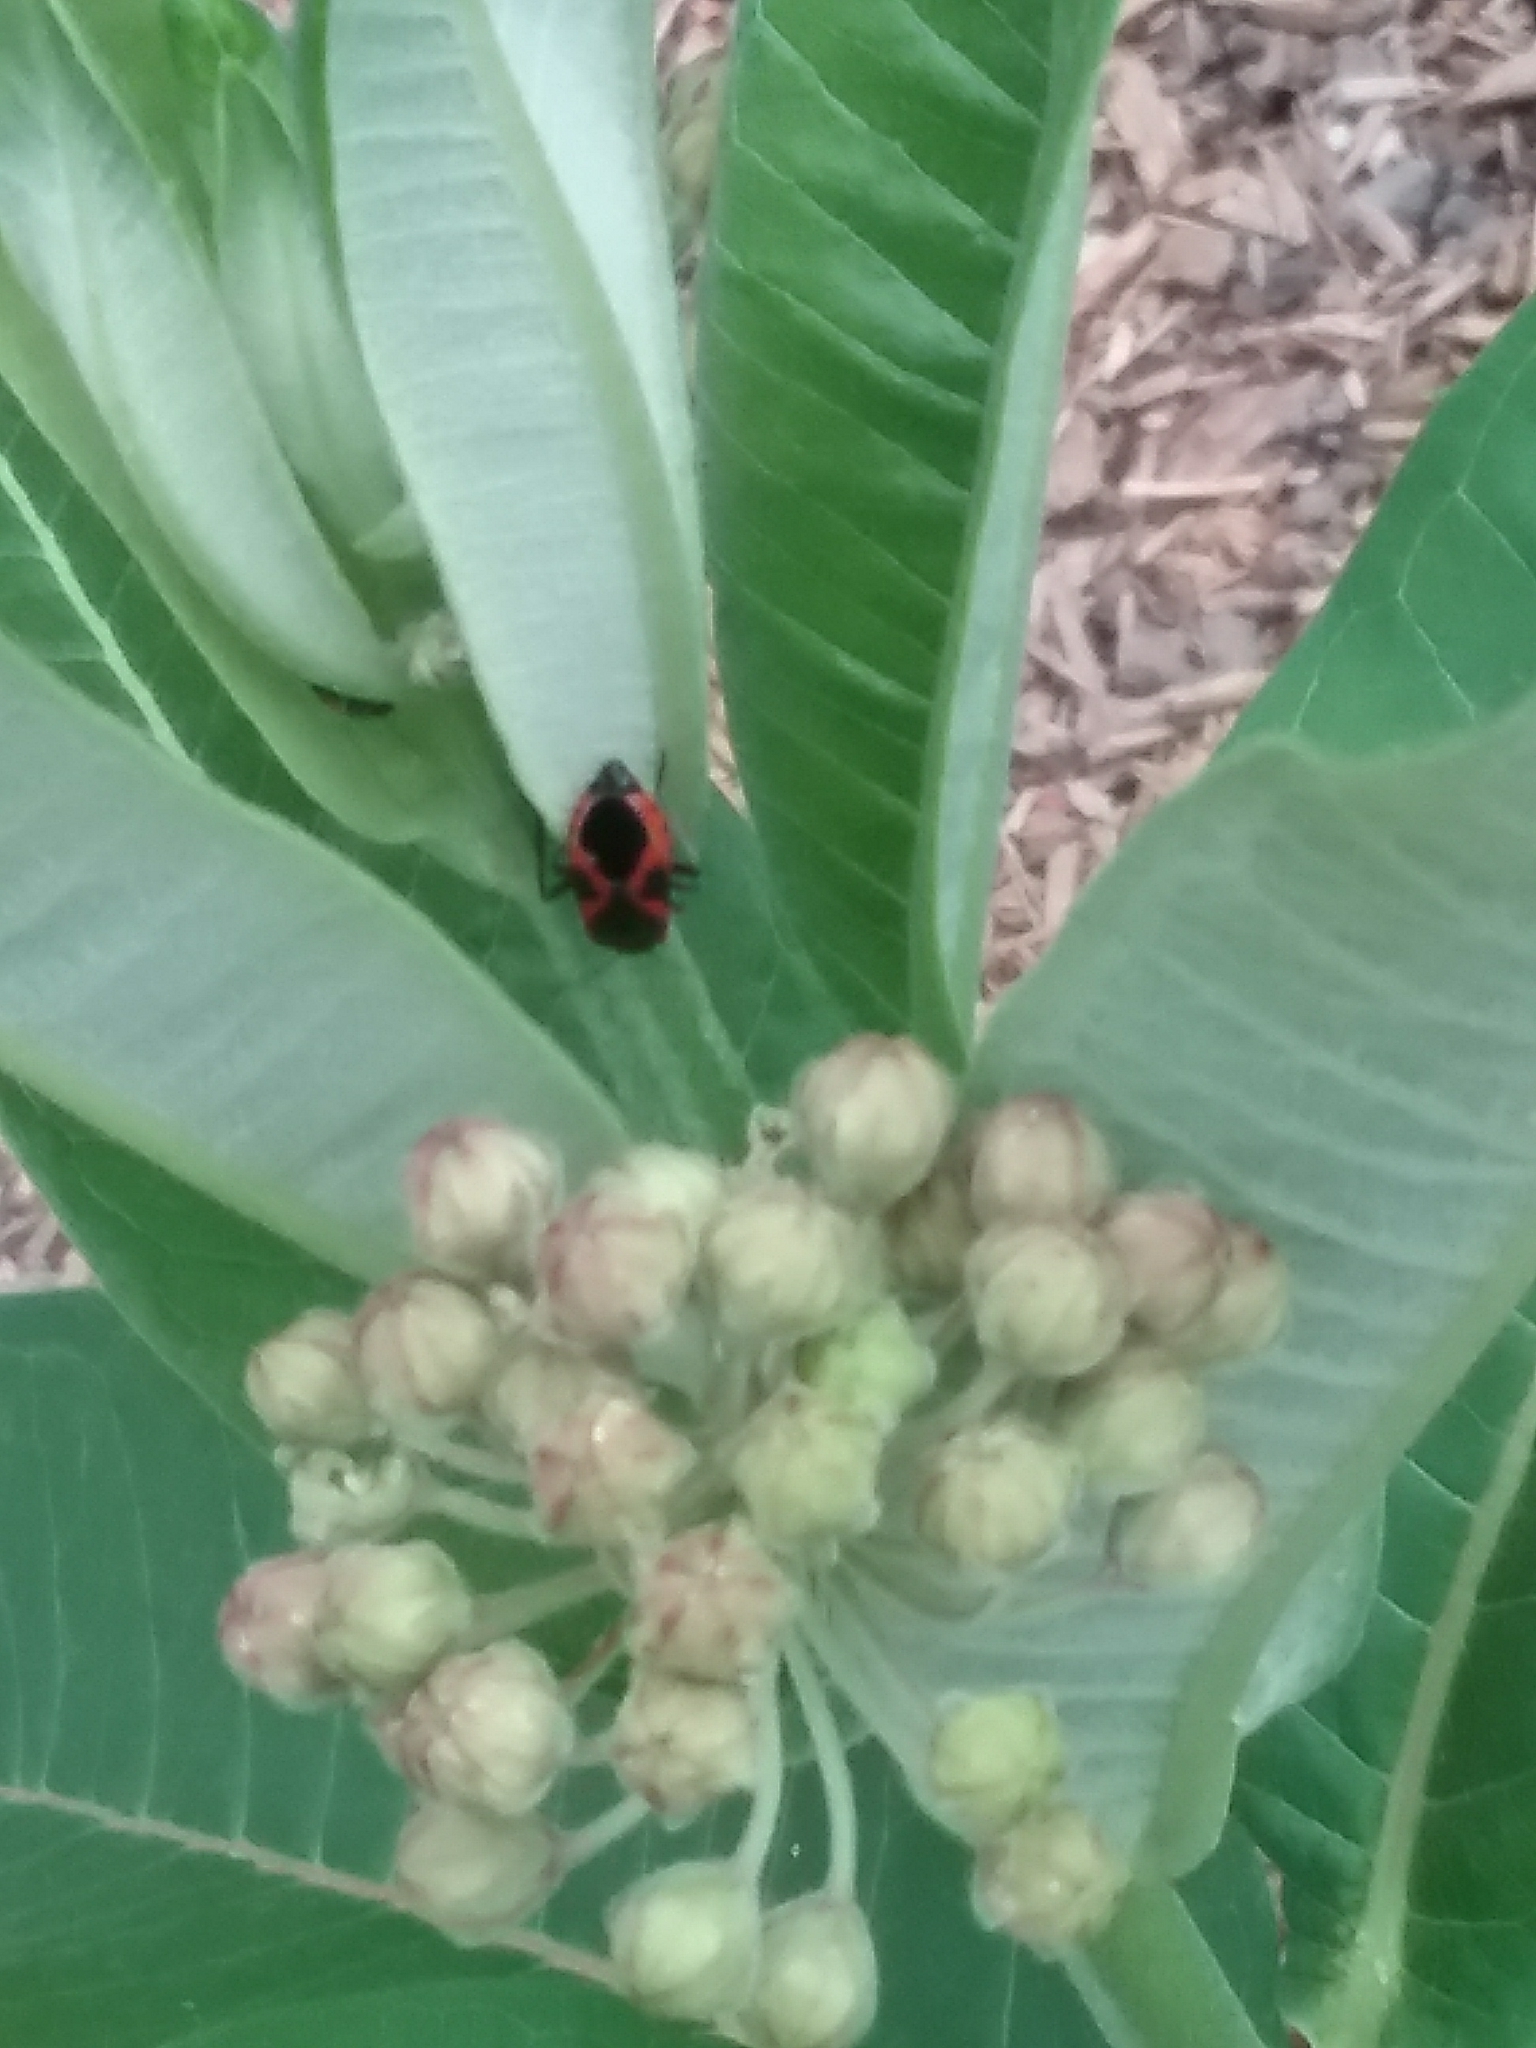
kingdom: Animalia
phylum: Arthropoda
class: Insecta
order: Hemiptera
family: Lygaeidae
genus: Lygaeus
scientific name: Lygaeus kalmii
